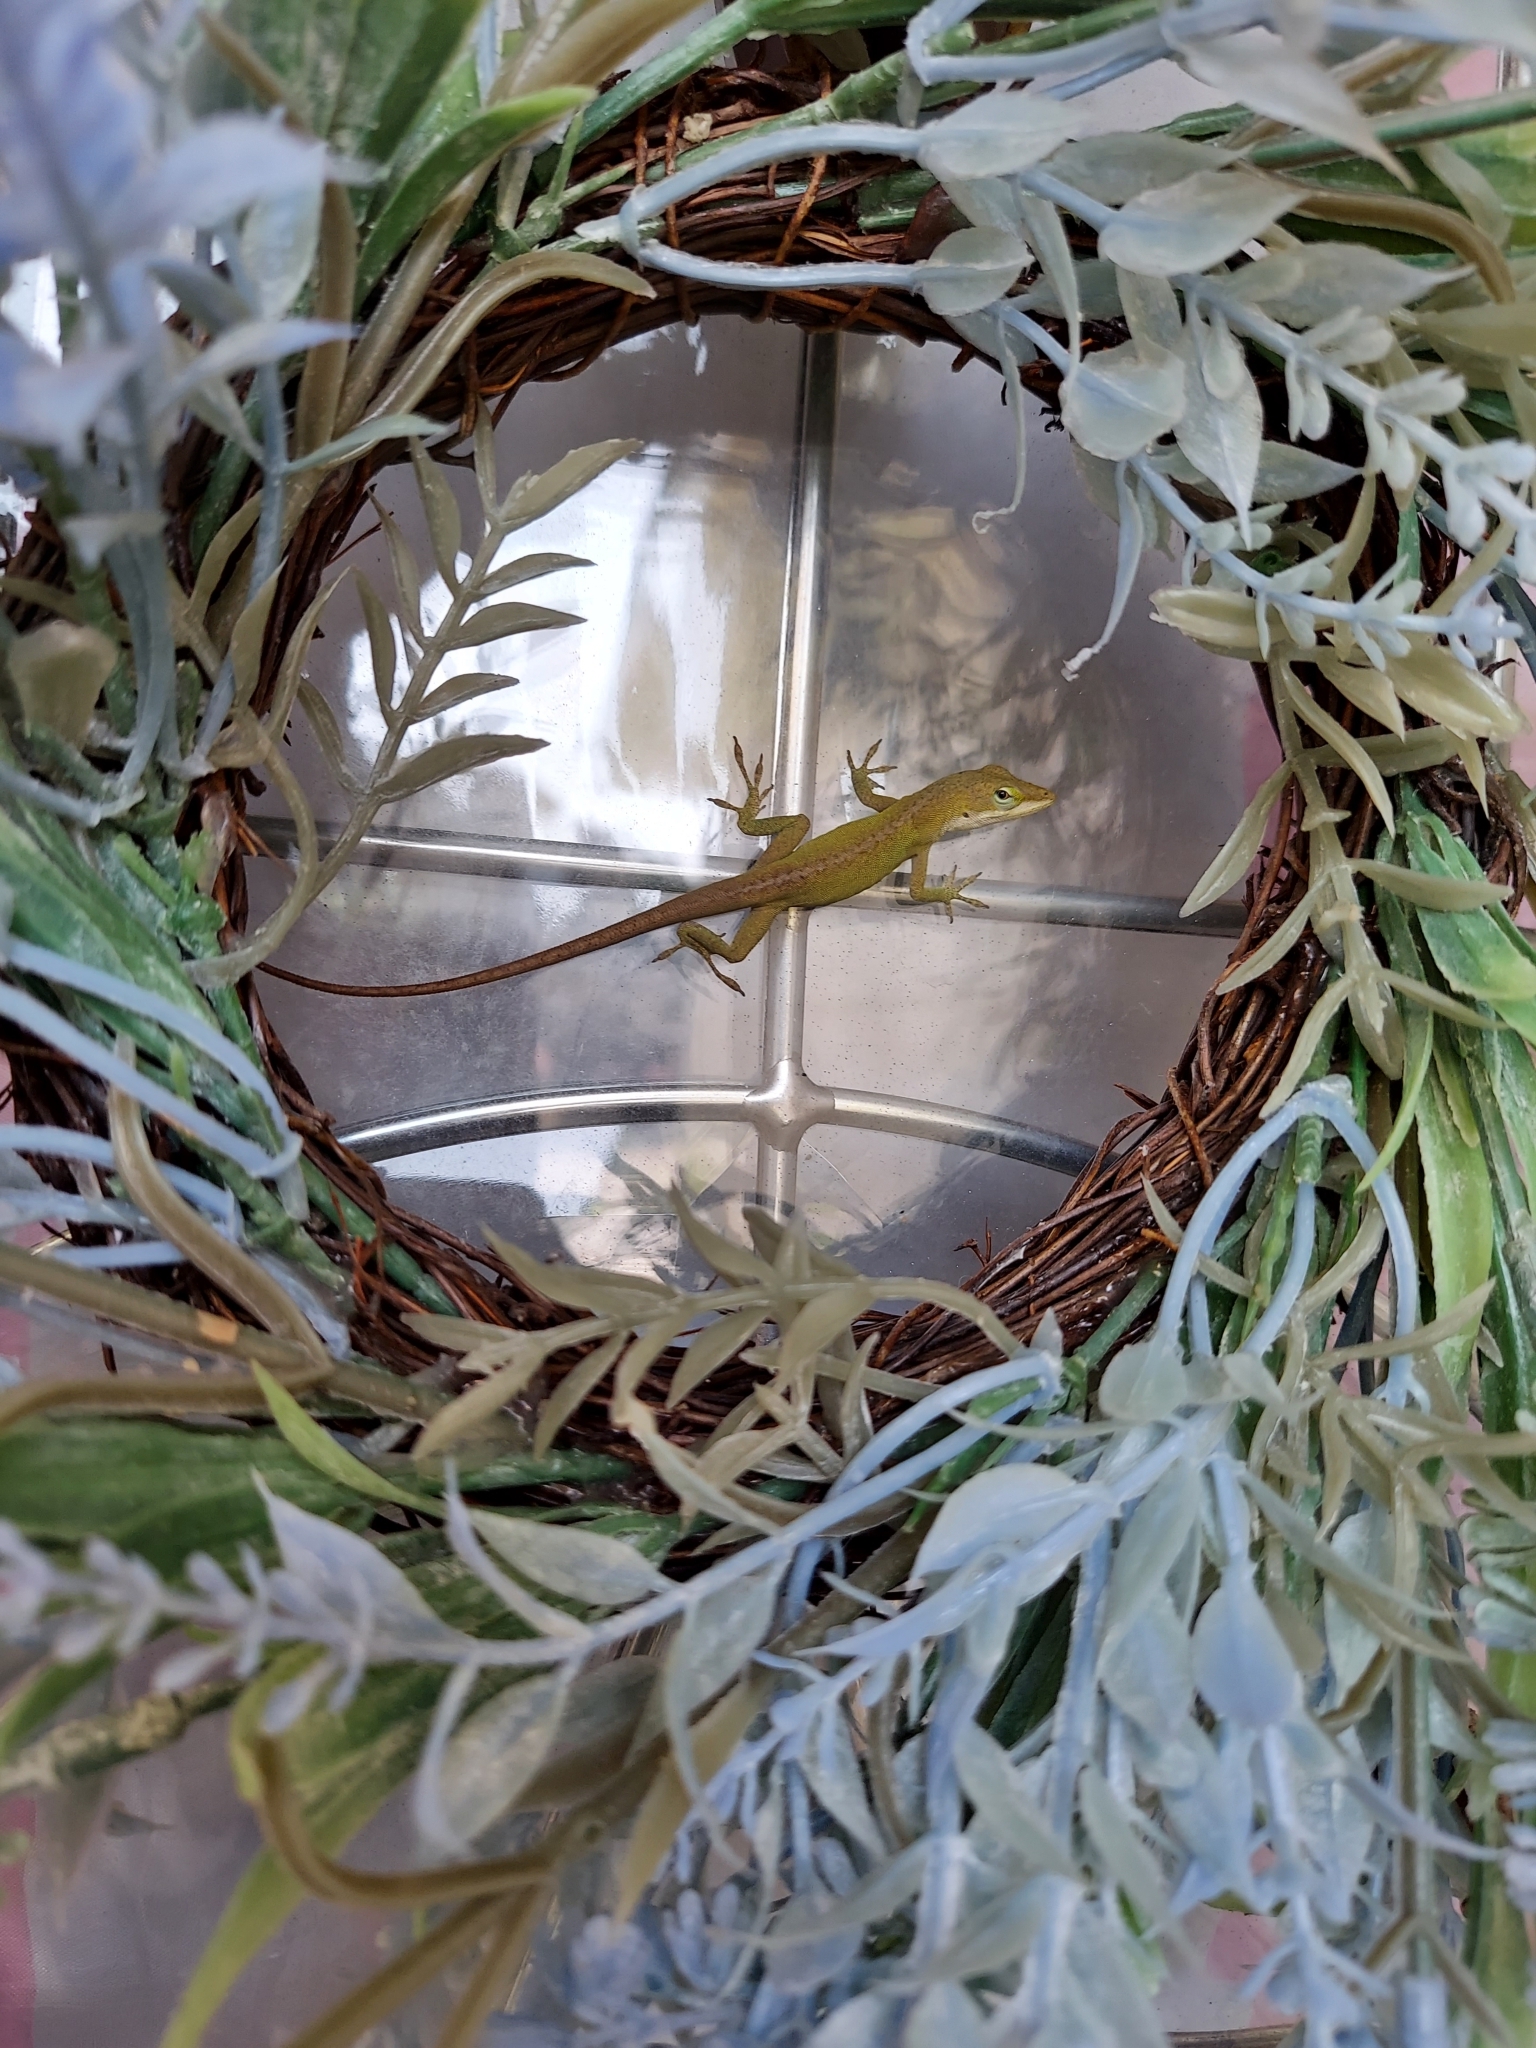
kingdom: Animalia
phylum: Chordata
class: Squamata
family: Dactyloidae
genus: Anolis
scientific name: Anolis carolinensis
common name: Green anole
